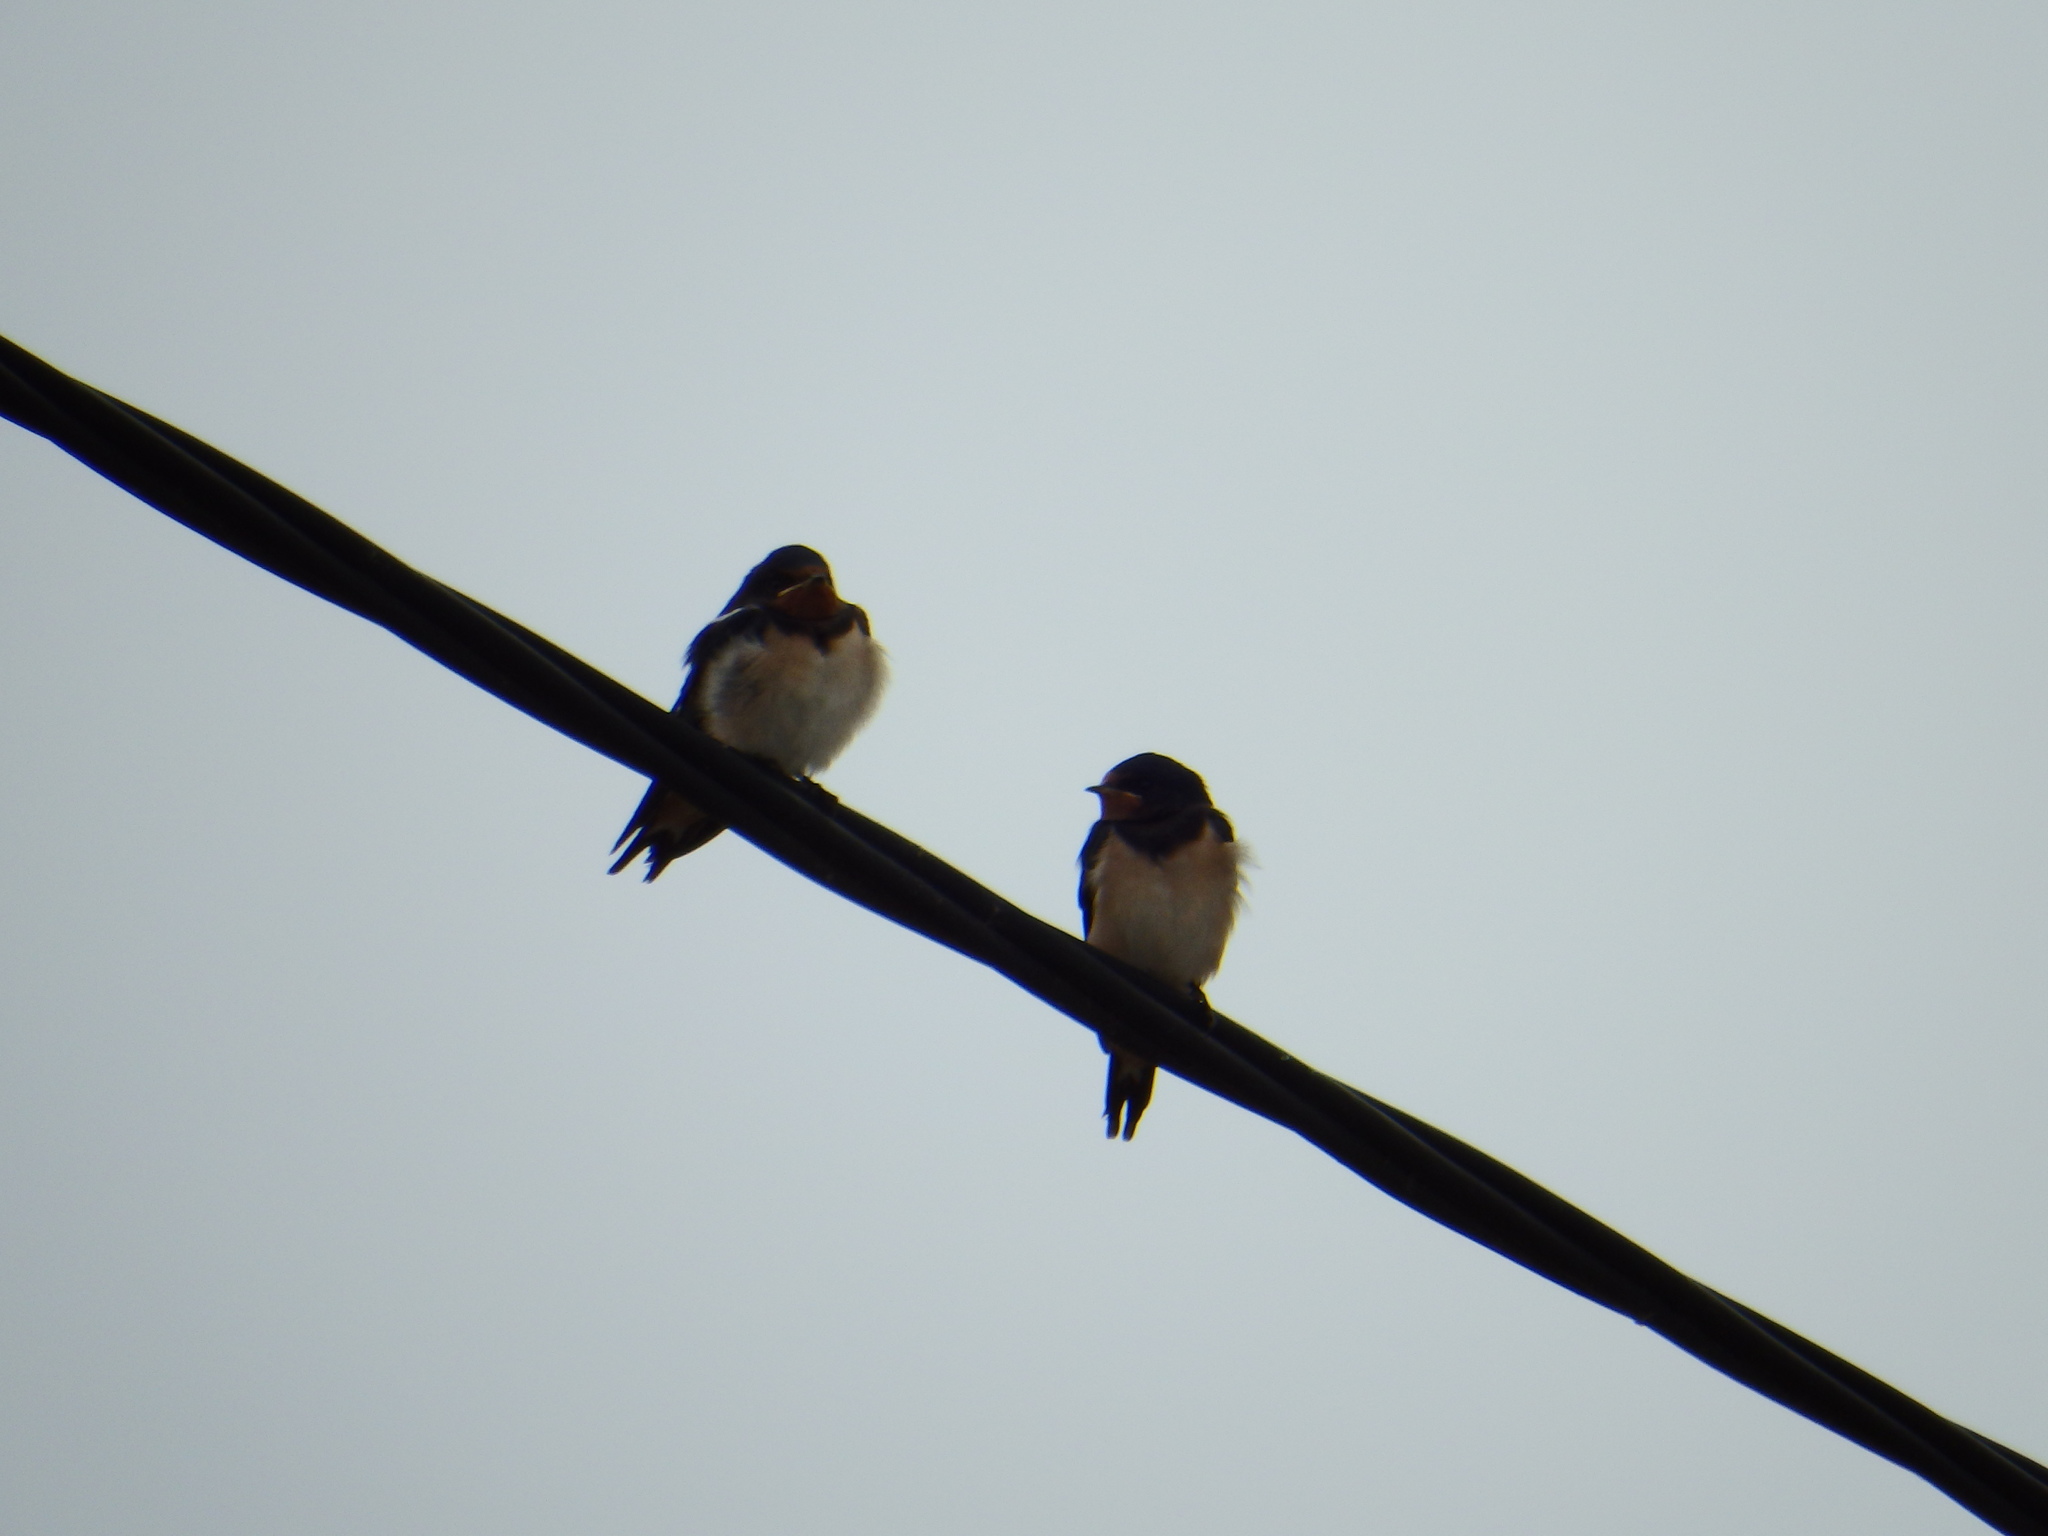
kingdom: Animalia
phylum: Chordata
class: Aves
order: Passeriformes
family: Hirundinidae
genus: Hirundo
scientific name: Hirundo rustica
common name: Barn swallow
